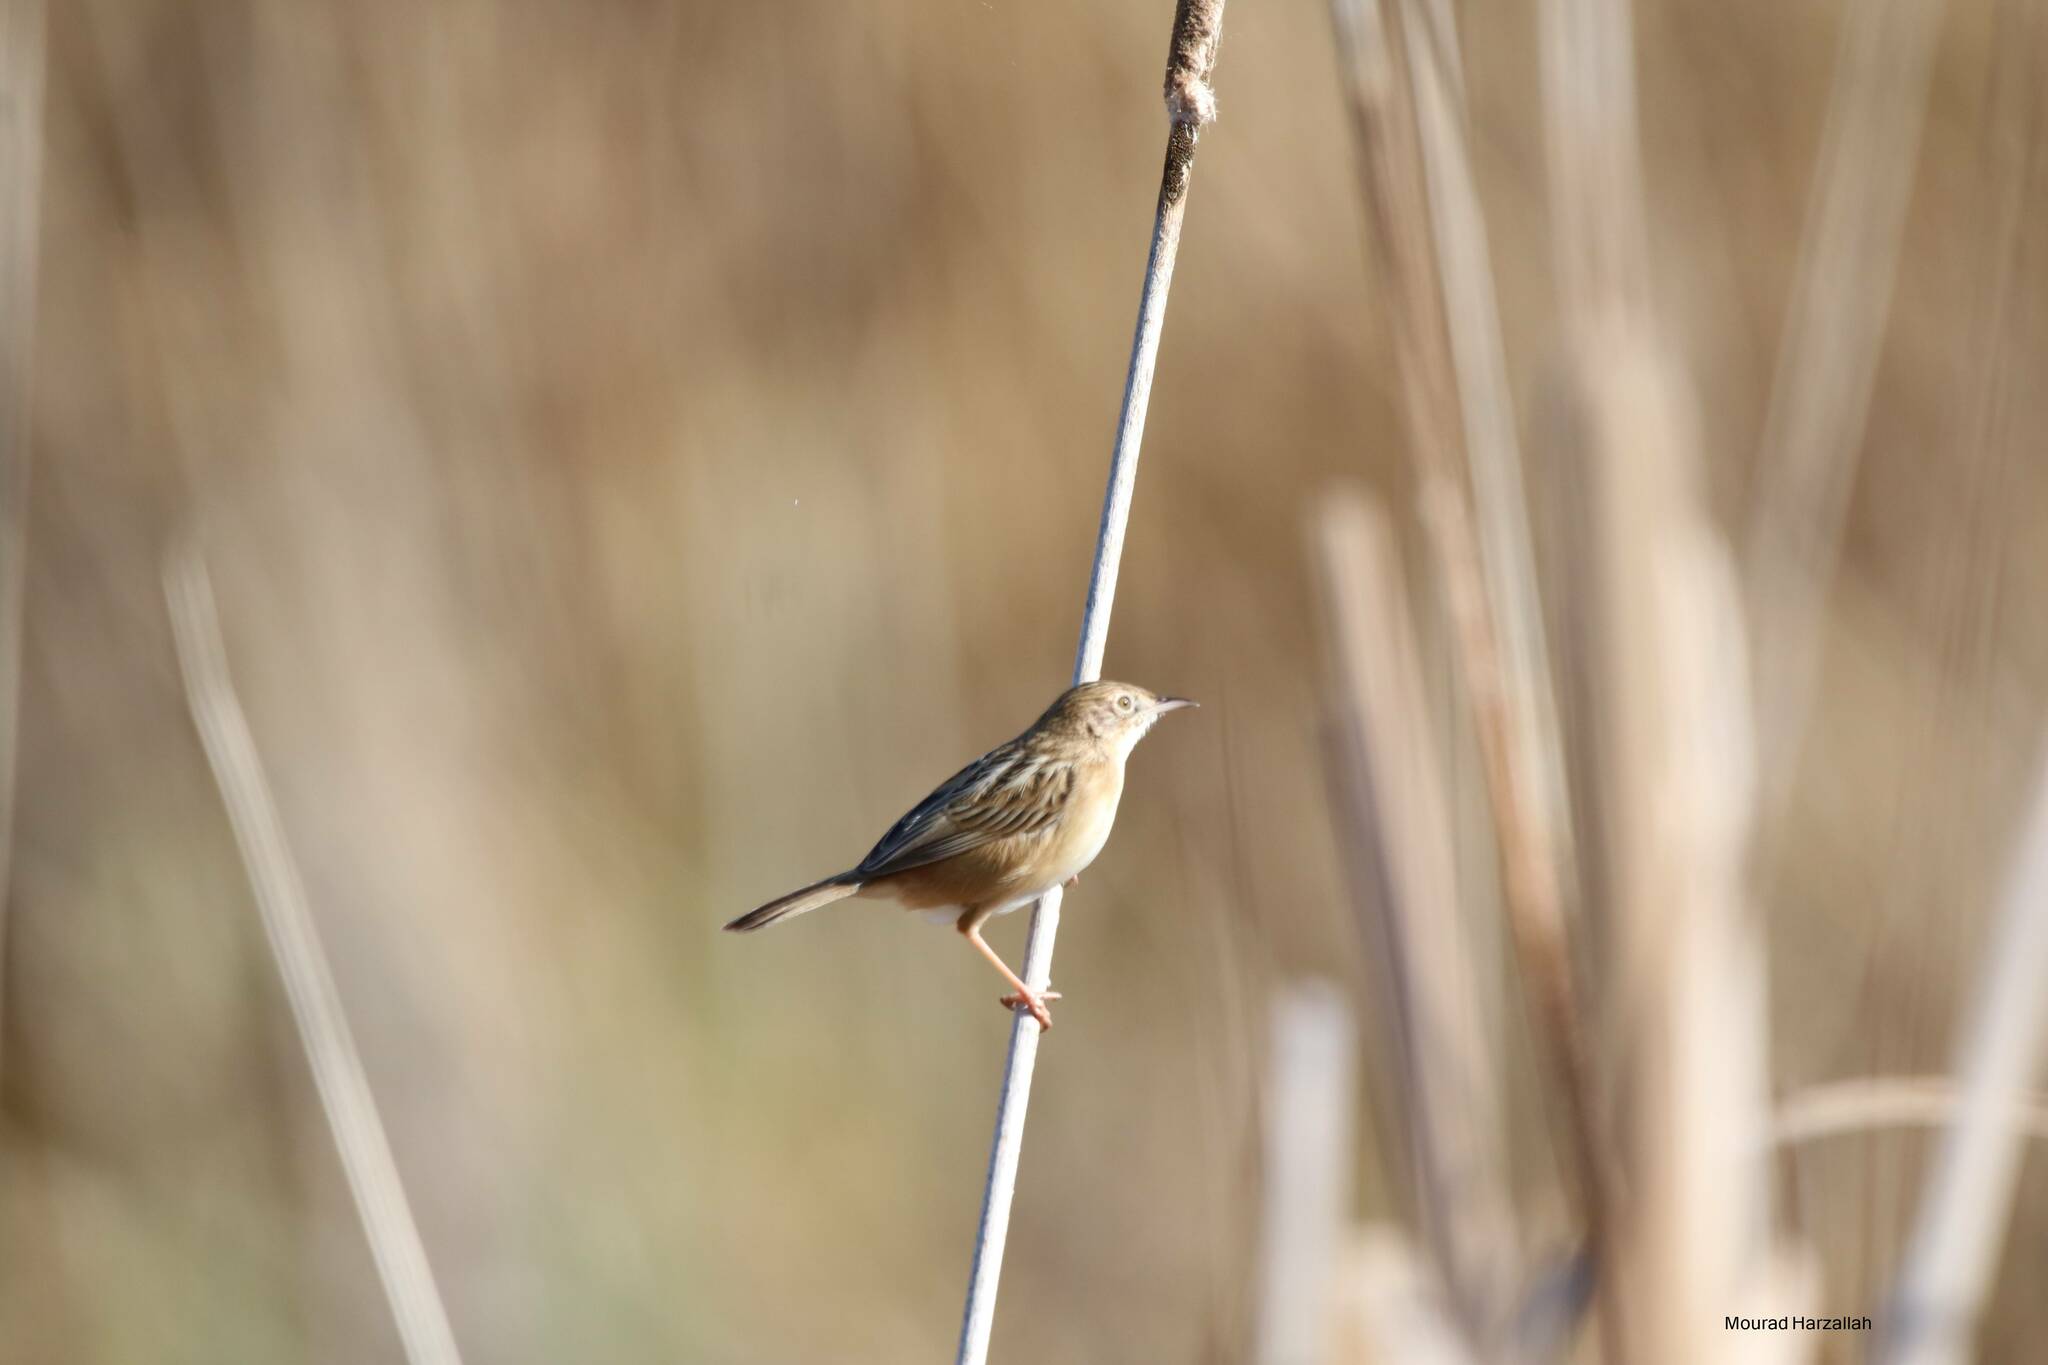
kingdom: Animalia
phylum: Chordata
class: Aves
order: Passeriformes
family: Cisticolidae
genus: Cisticola
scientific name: Cisticola juncidis
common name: Zitting cisticola
